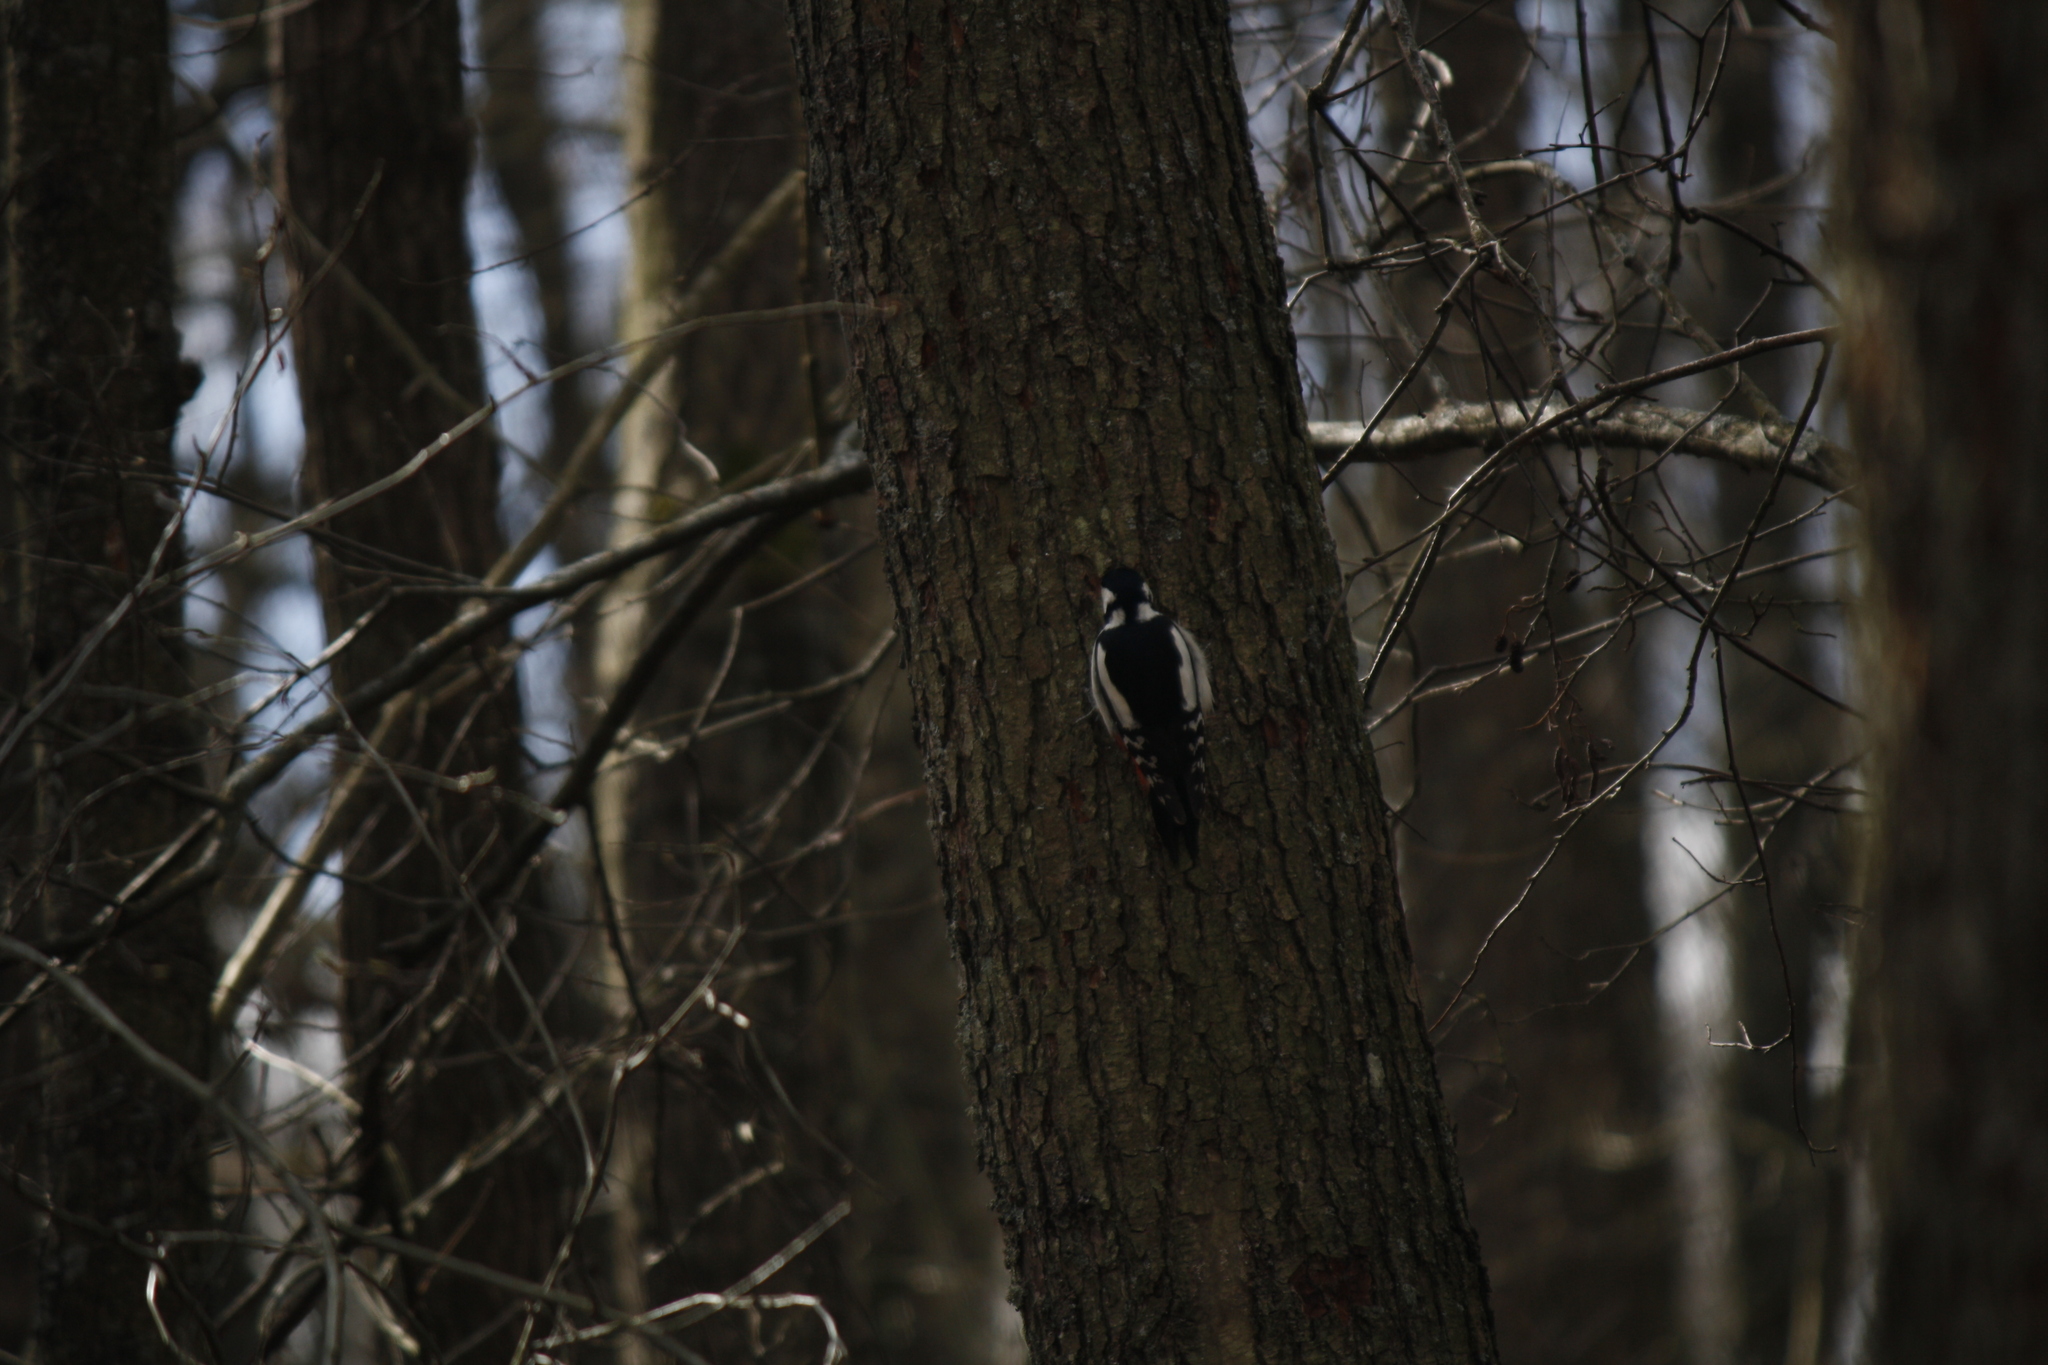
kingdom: Animalia
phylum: Chordata
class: Aves
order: Piciformes
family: Picidae
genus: Dendrocopos
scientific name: Dendrocopos major
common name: Great spotted woodpecker
